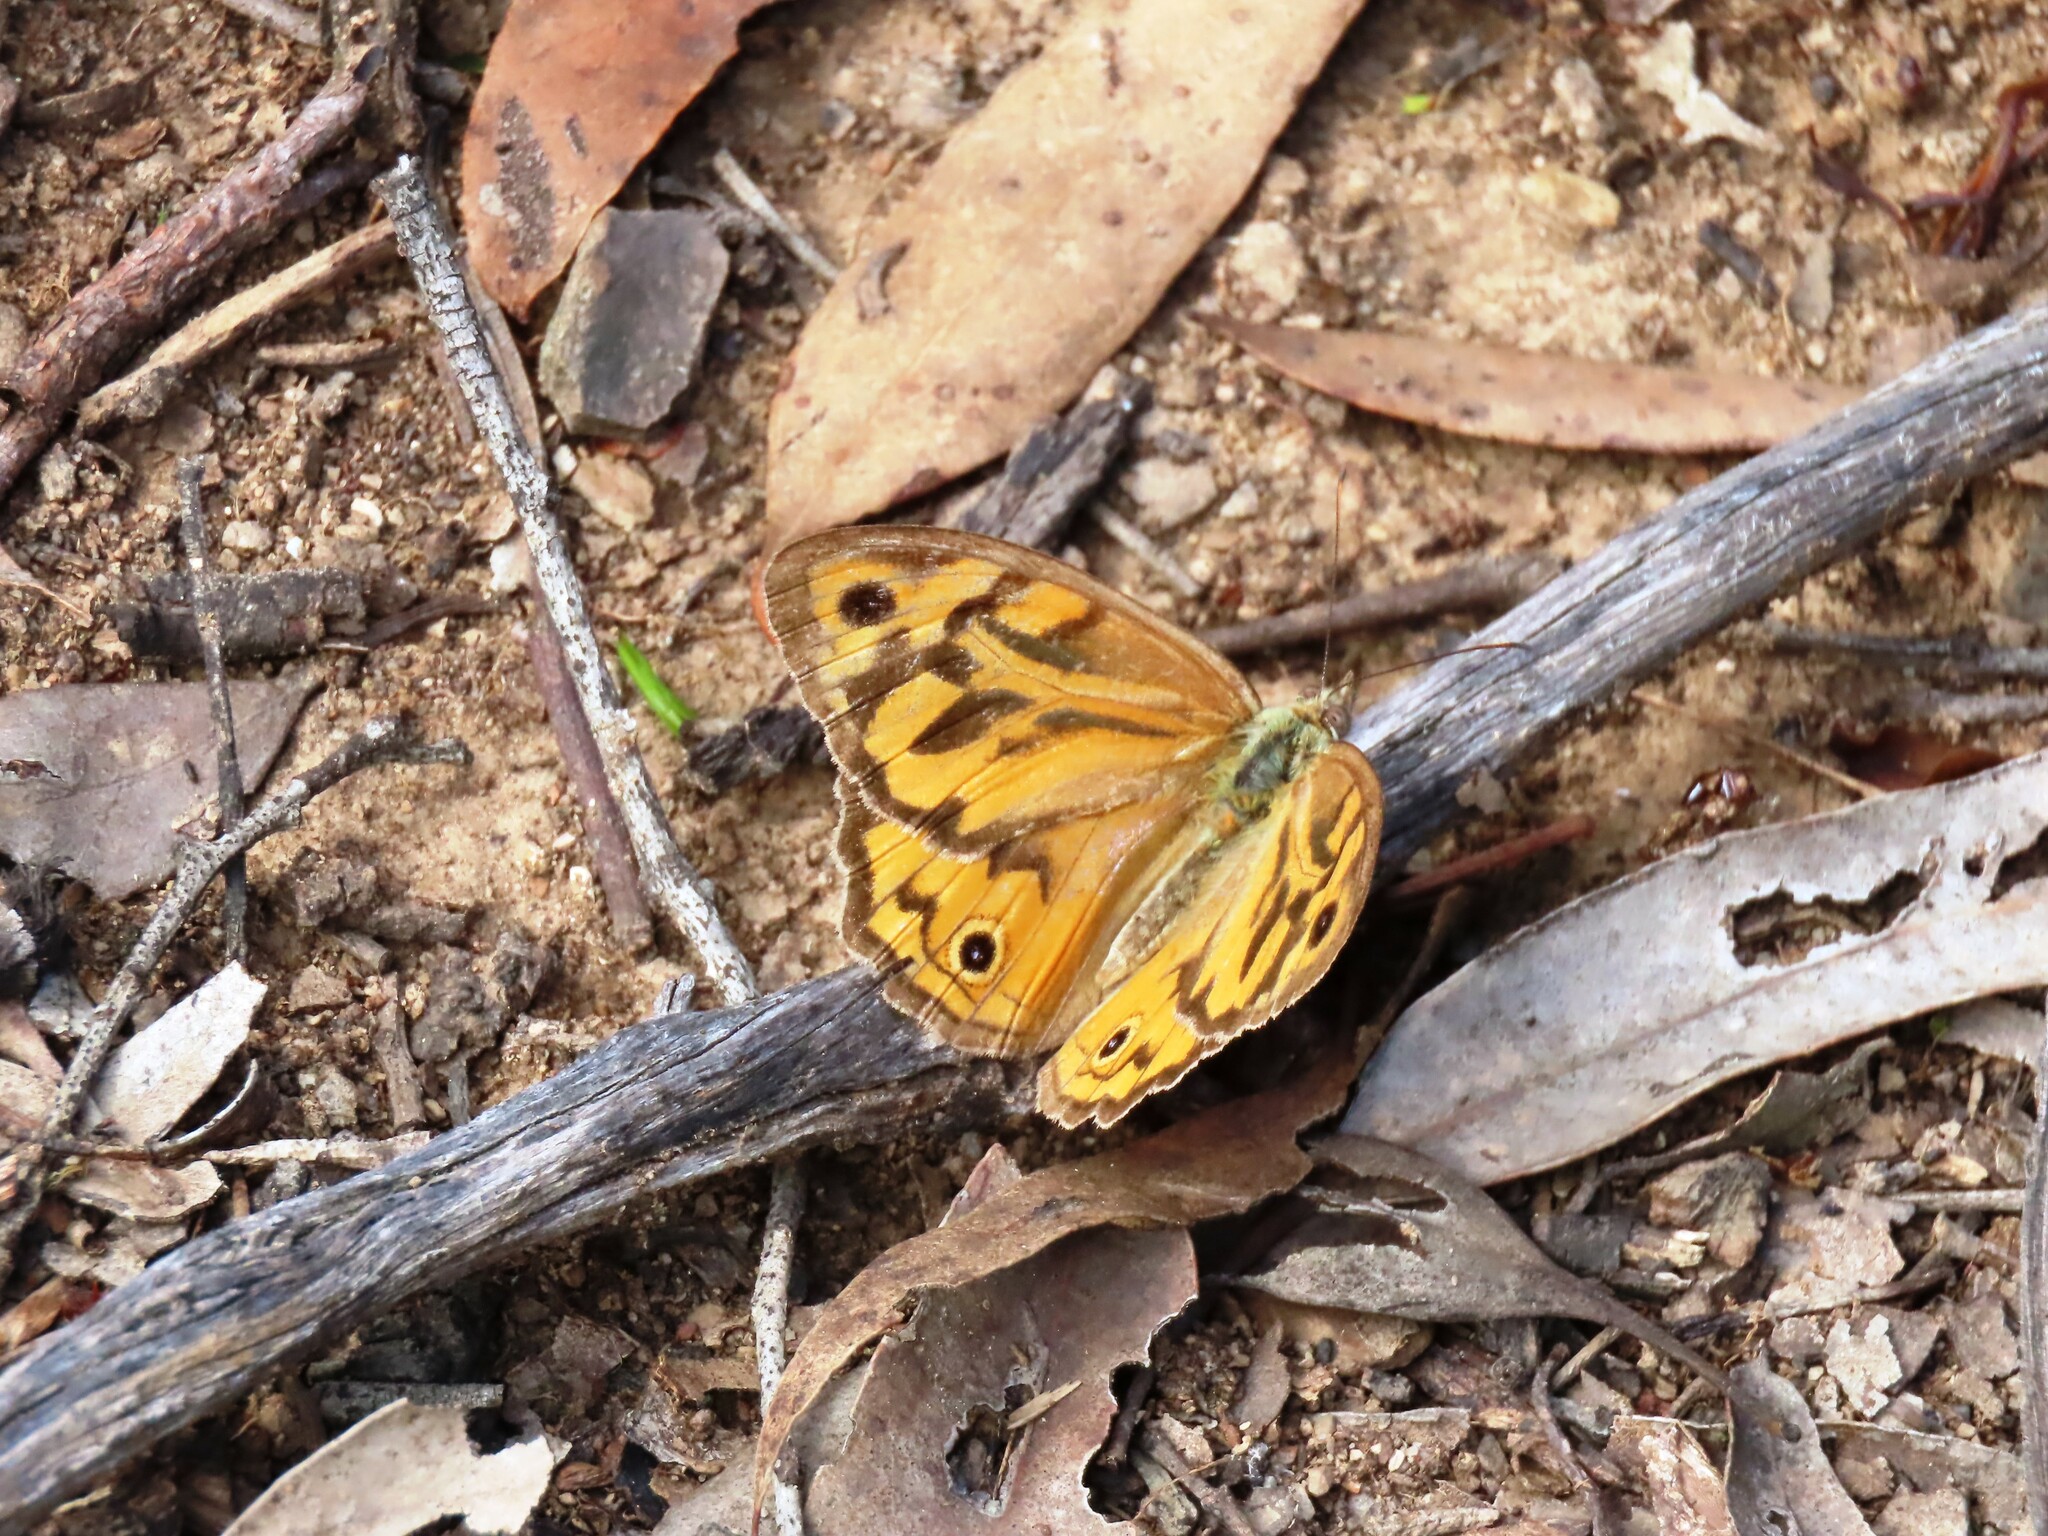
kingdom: Animalia
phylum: Arthropoda
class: Insecta
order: Lepidoptera
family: Nymphalidae
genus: Heteronympha
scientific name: Heteronympha merope
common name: Common brown
